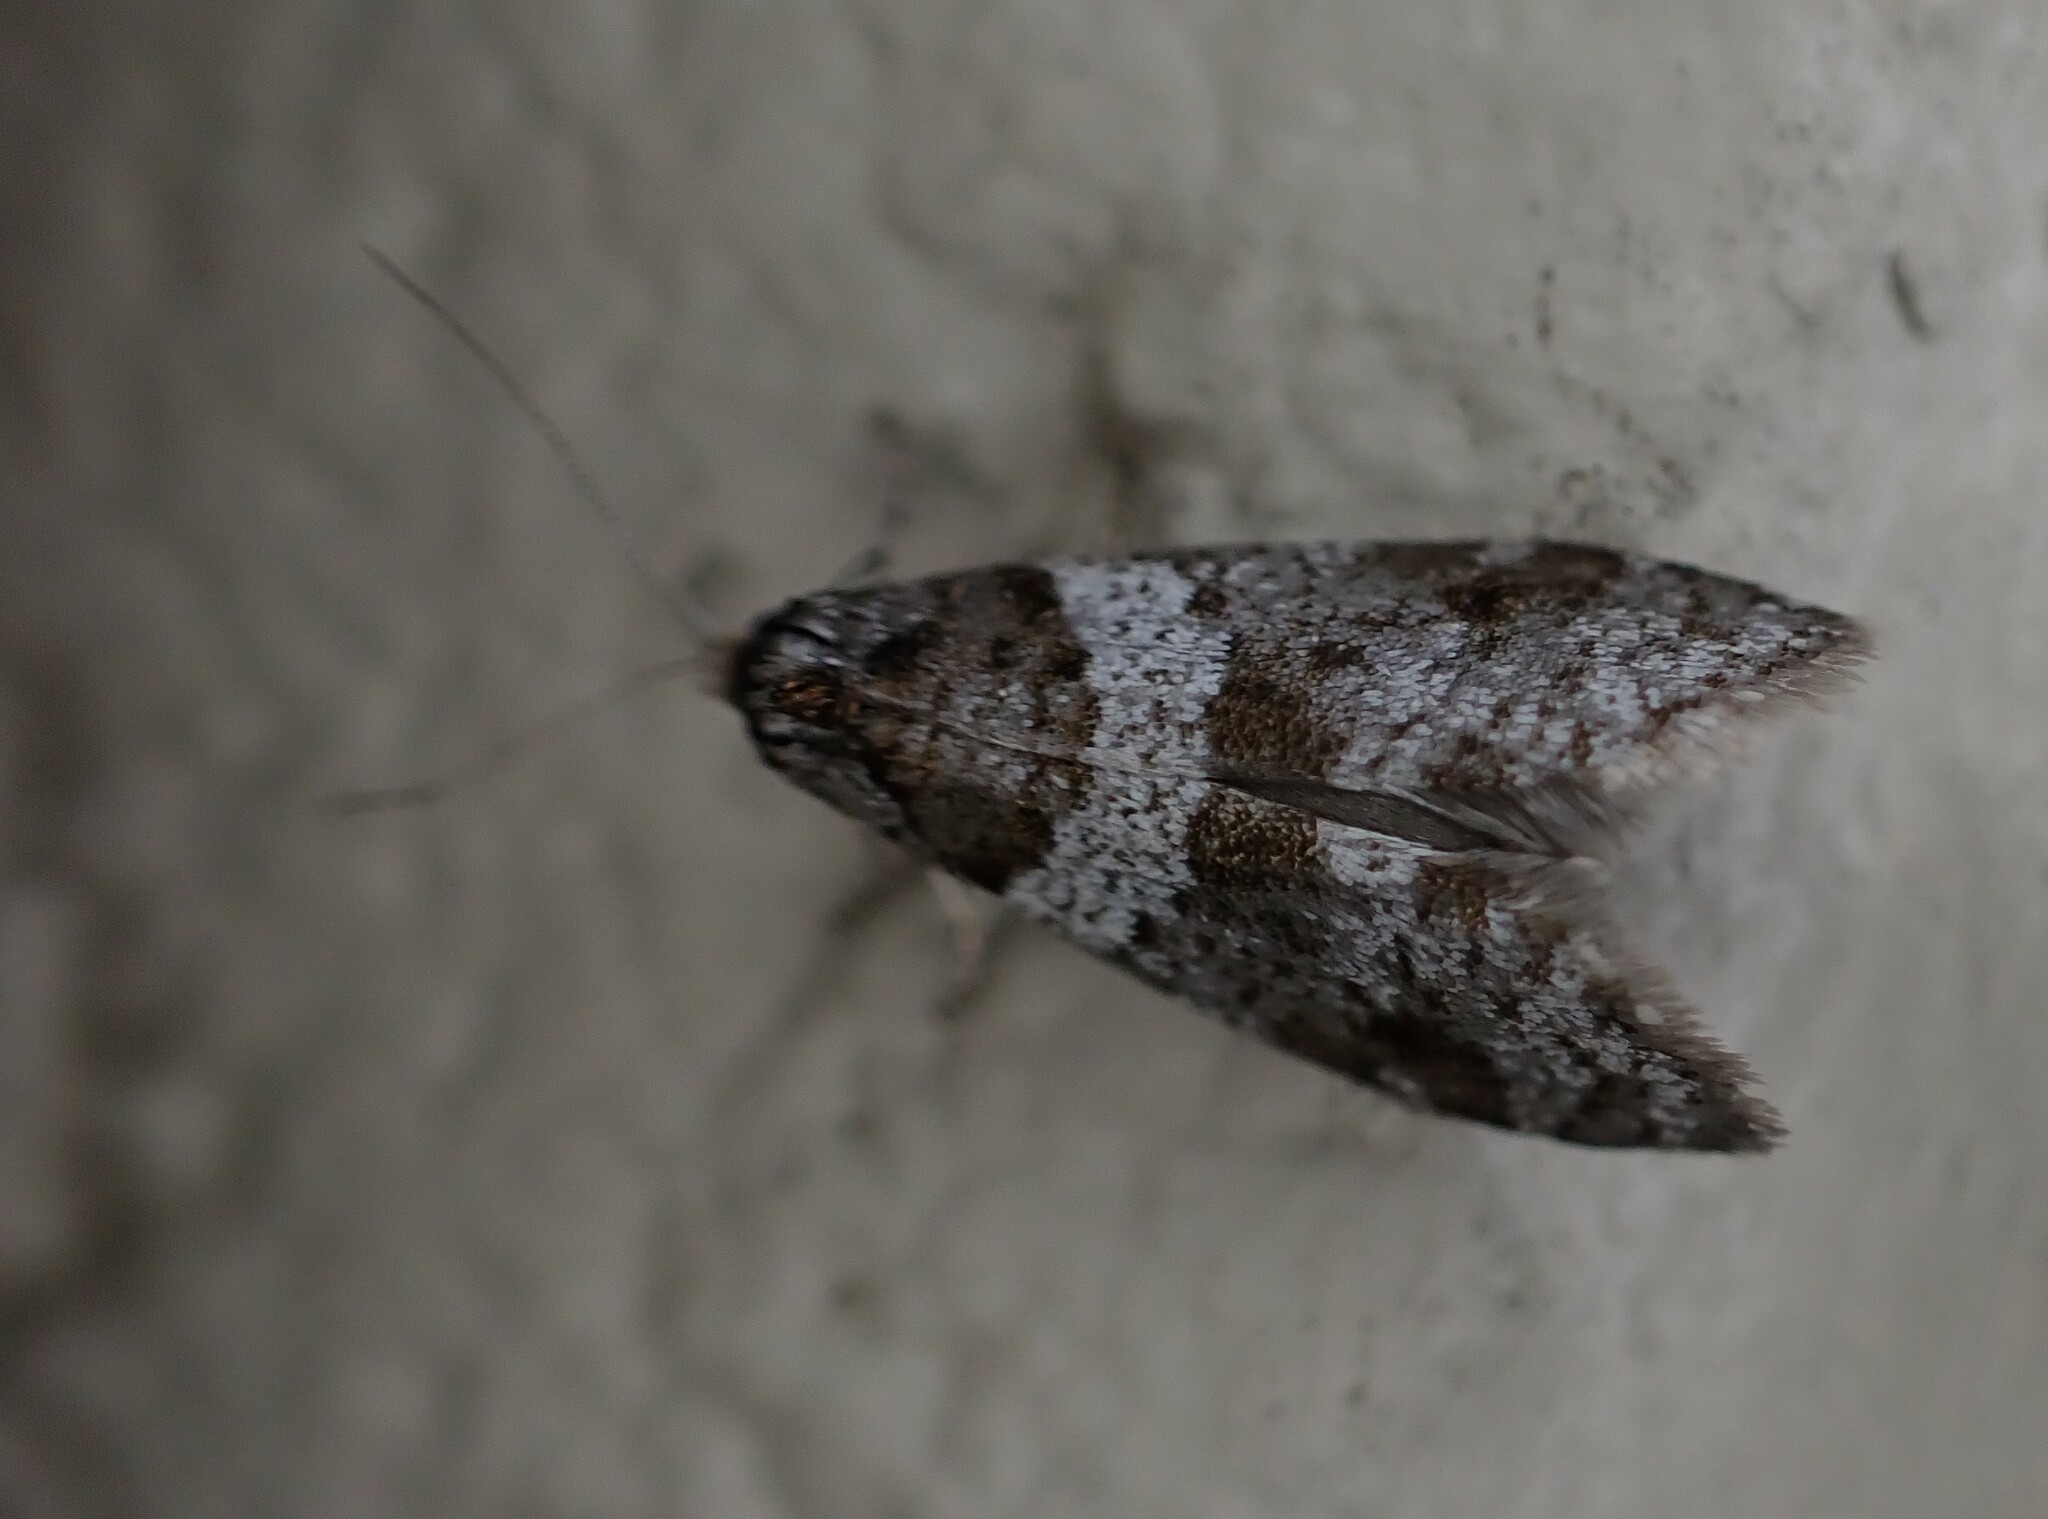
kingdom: Animalia
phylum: Arthropoda
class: Insecta
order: Lepidoptera
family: Psychidae
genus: Lepidoscia
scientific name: Lepidoscia heliochares
